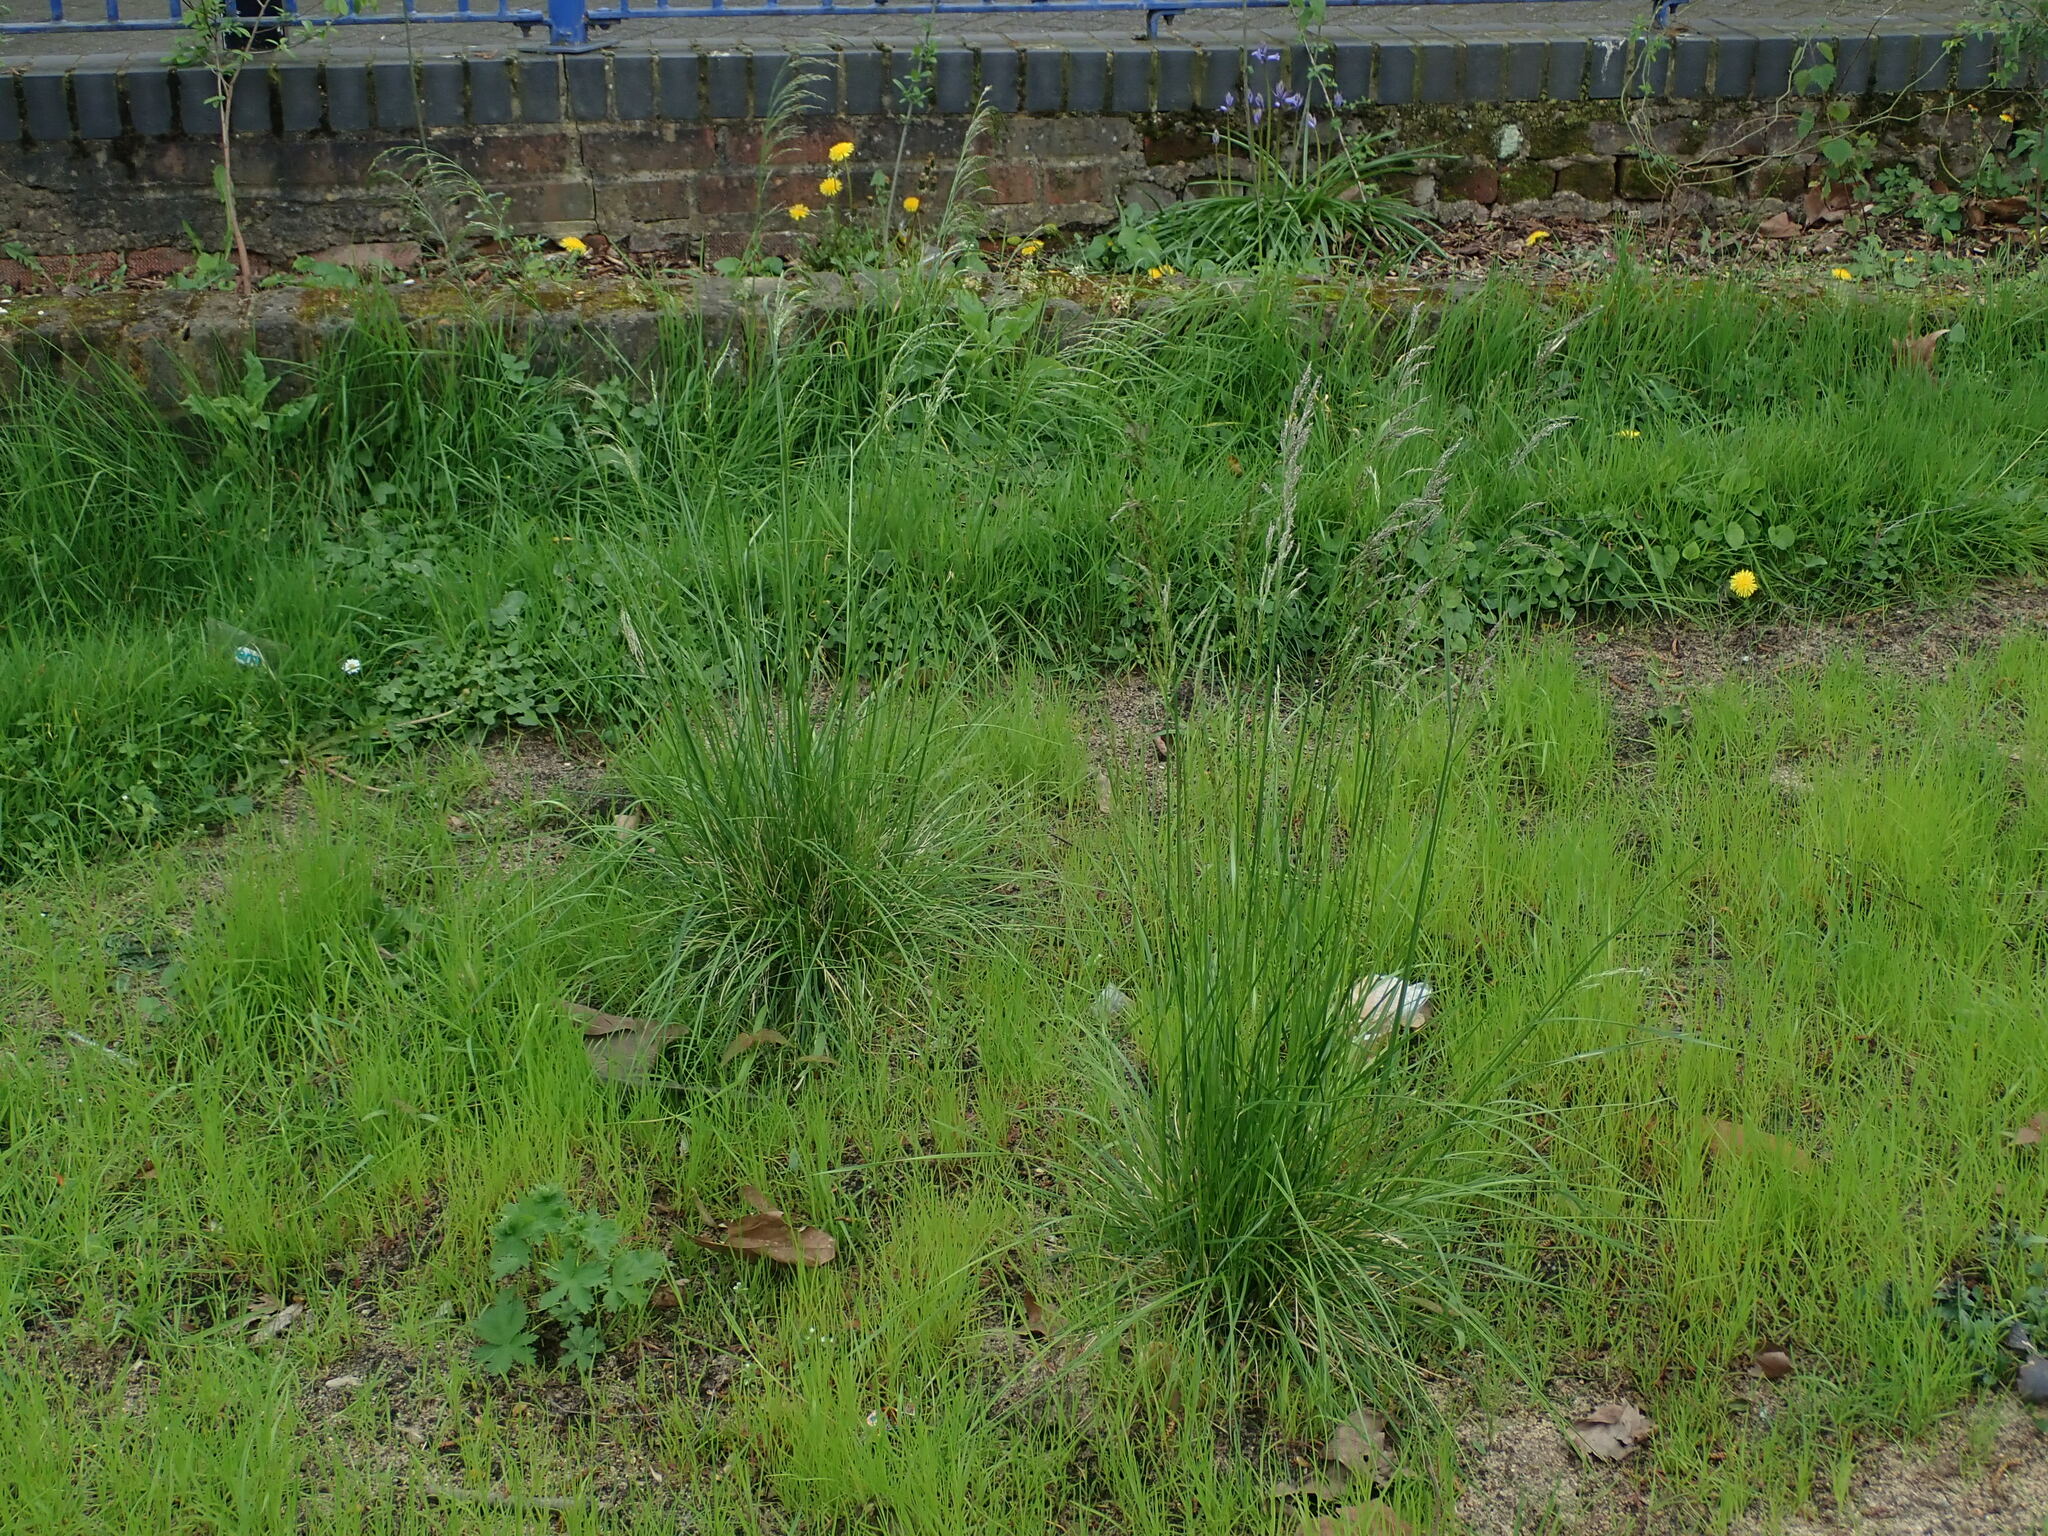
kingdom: Plantae
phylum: Tracheophyta
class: Liliopsida
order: Poales
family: Poaceae
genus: Deschampsia
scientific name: Deschampsia cespitosa
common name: Tufted hair-grass
